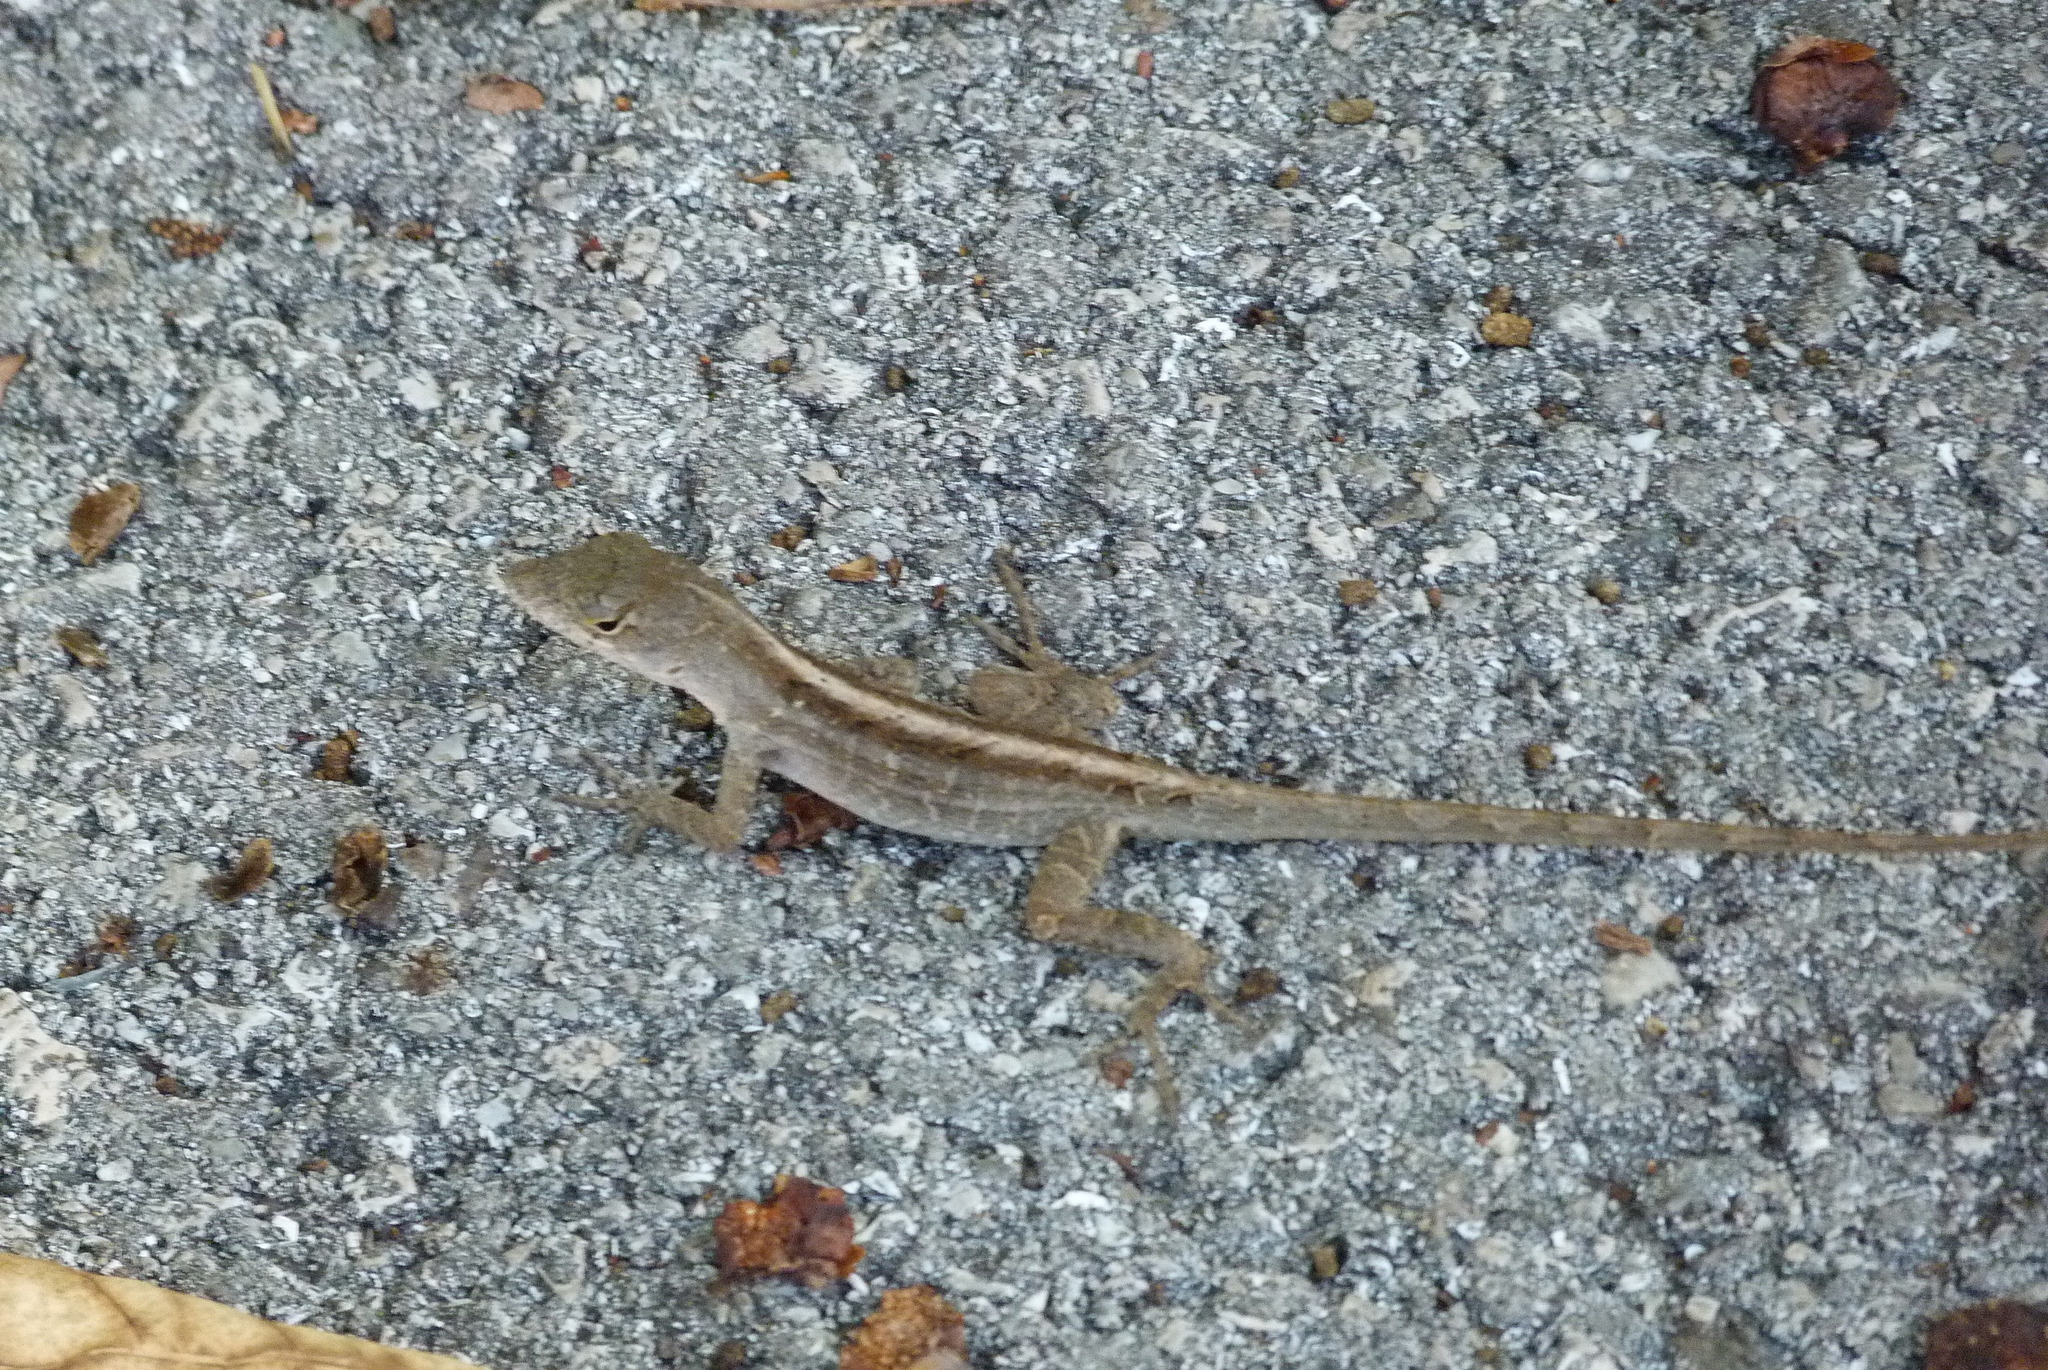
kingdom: Animalia
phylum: Chordata
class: Squamata
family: Dactyloidae
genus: Anolis
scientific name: Anolis sagrei
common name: Brown anole
